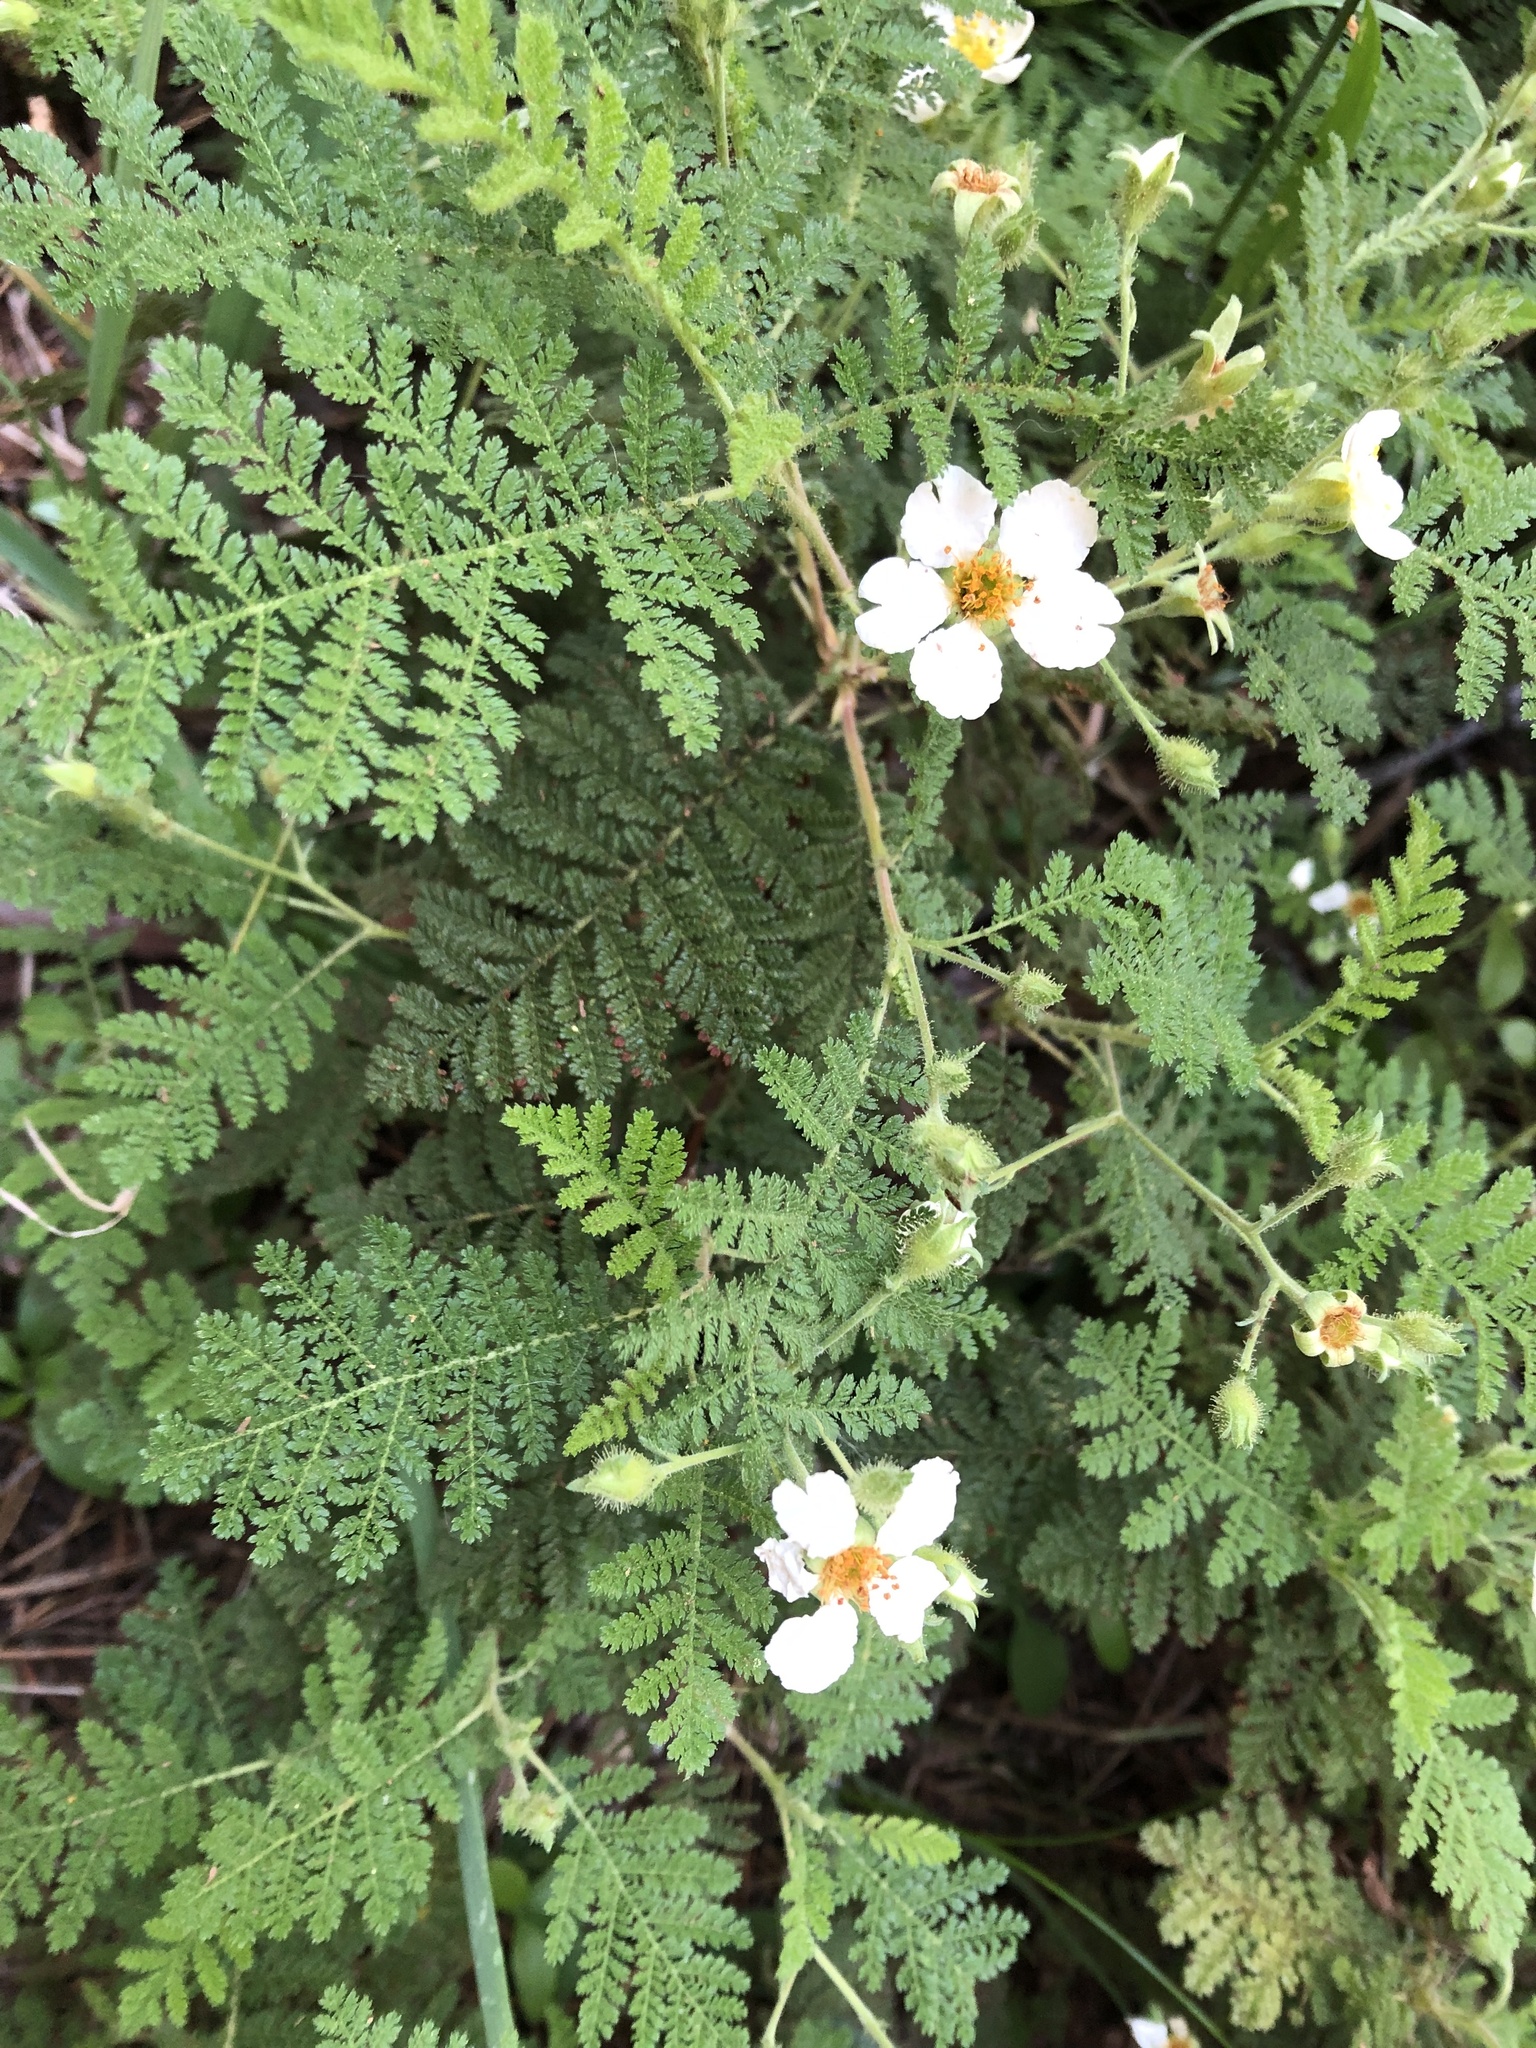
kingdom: Plantae
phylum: Tracheophyta
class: Magnoliopsida
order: Rosales
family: Rosaceae
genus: Chamaebatia
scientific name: Chamaebatia foliolosa
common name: Mountain misery
